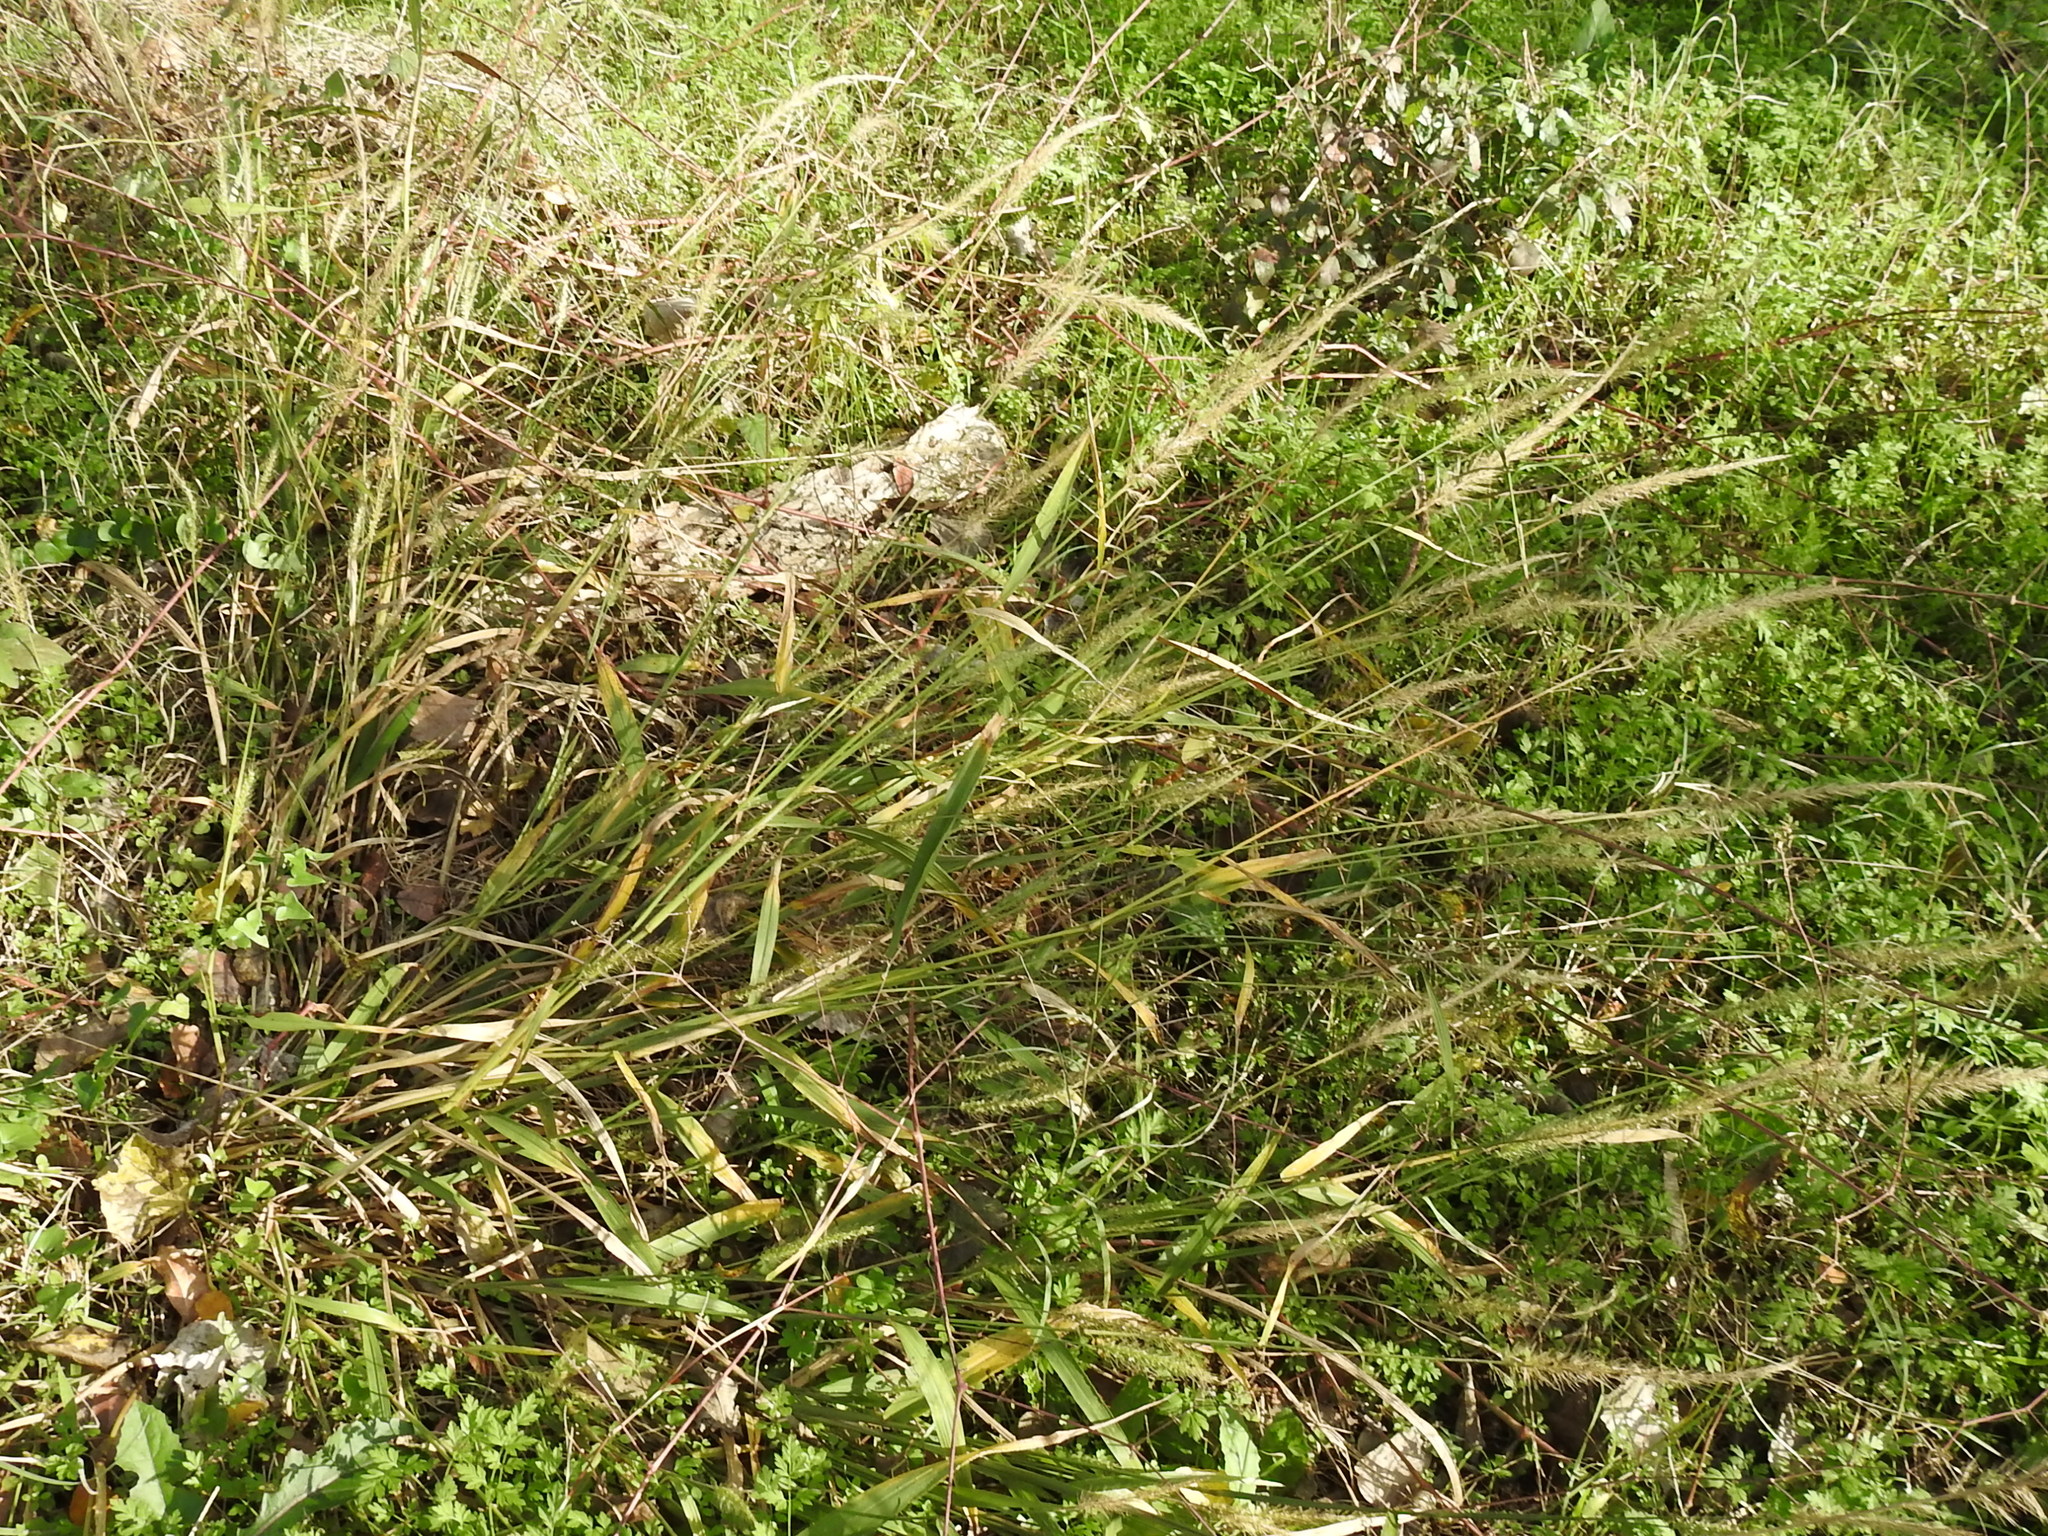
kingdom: Plantae
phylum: Tracheophyta
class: Liliopsida
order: Poales
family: Poaceae
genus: Setaria
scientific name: Setaria scheelei
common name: Southwestern bristle grass
